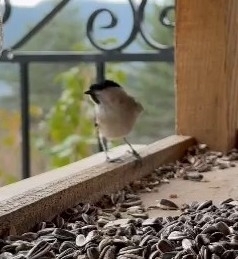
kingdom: Animalia
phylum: Chordata
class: Aves
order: Passeriformes
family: Paridae
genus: Poecile
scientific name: Poecile palustris
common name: Marsh tit
